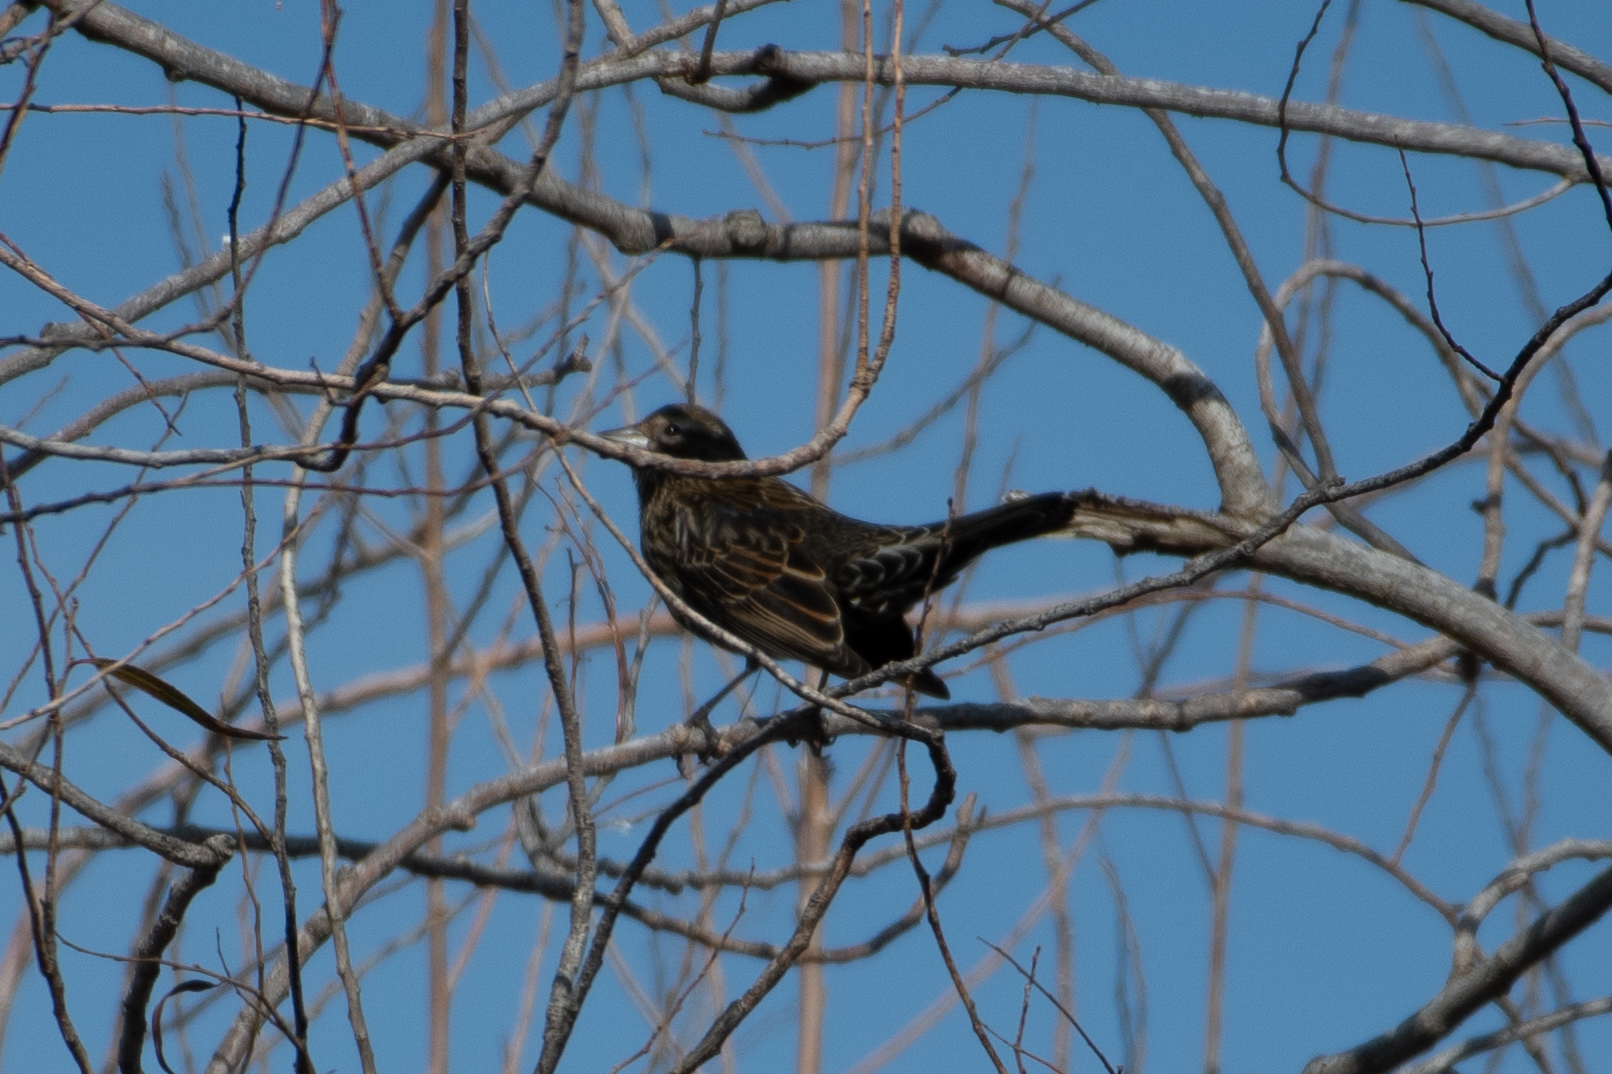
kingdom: Animalia
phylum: Chordata
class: Aves
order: Passeriformes
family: Icteridae
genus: Agelaius
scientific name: Agelaius phoeniceus
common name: Red-winged blackbird
